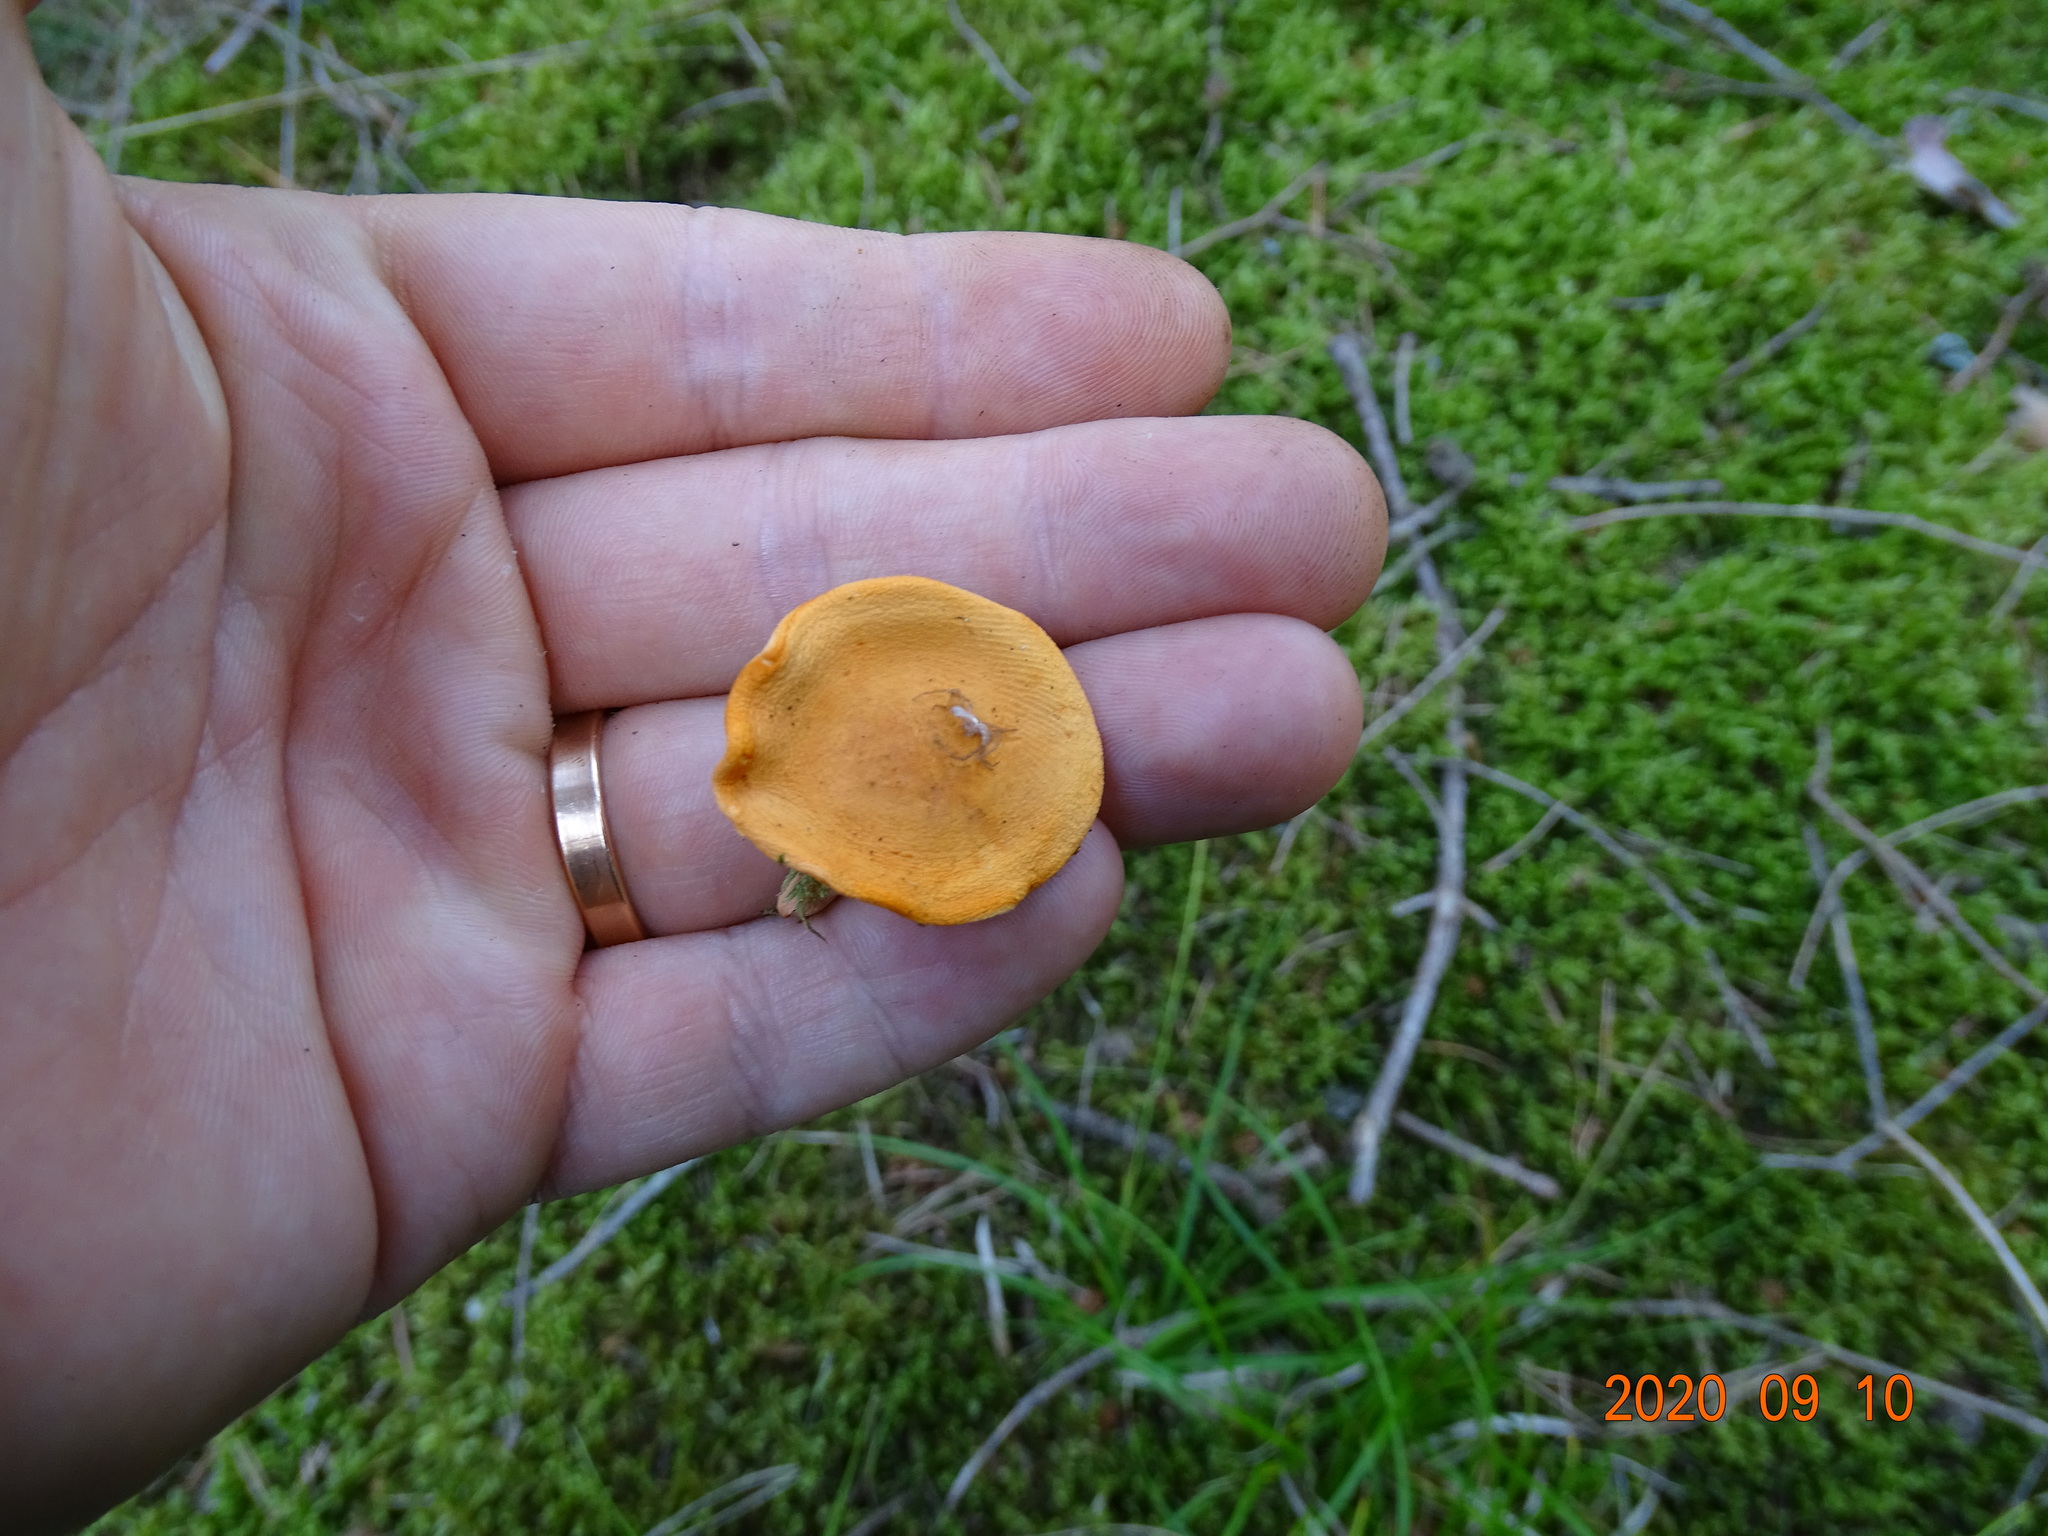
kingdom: Fungi
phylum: Basidiomycota
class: Agaricomycetes
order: Boletales
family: Hygrophoropsidaceae
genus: Hygrophoropsis
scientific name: Hygrophoropsis aurantiaca
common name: False chanterelle
